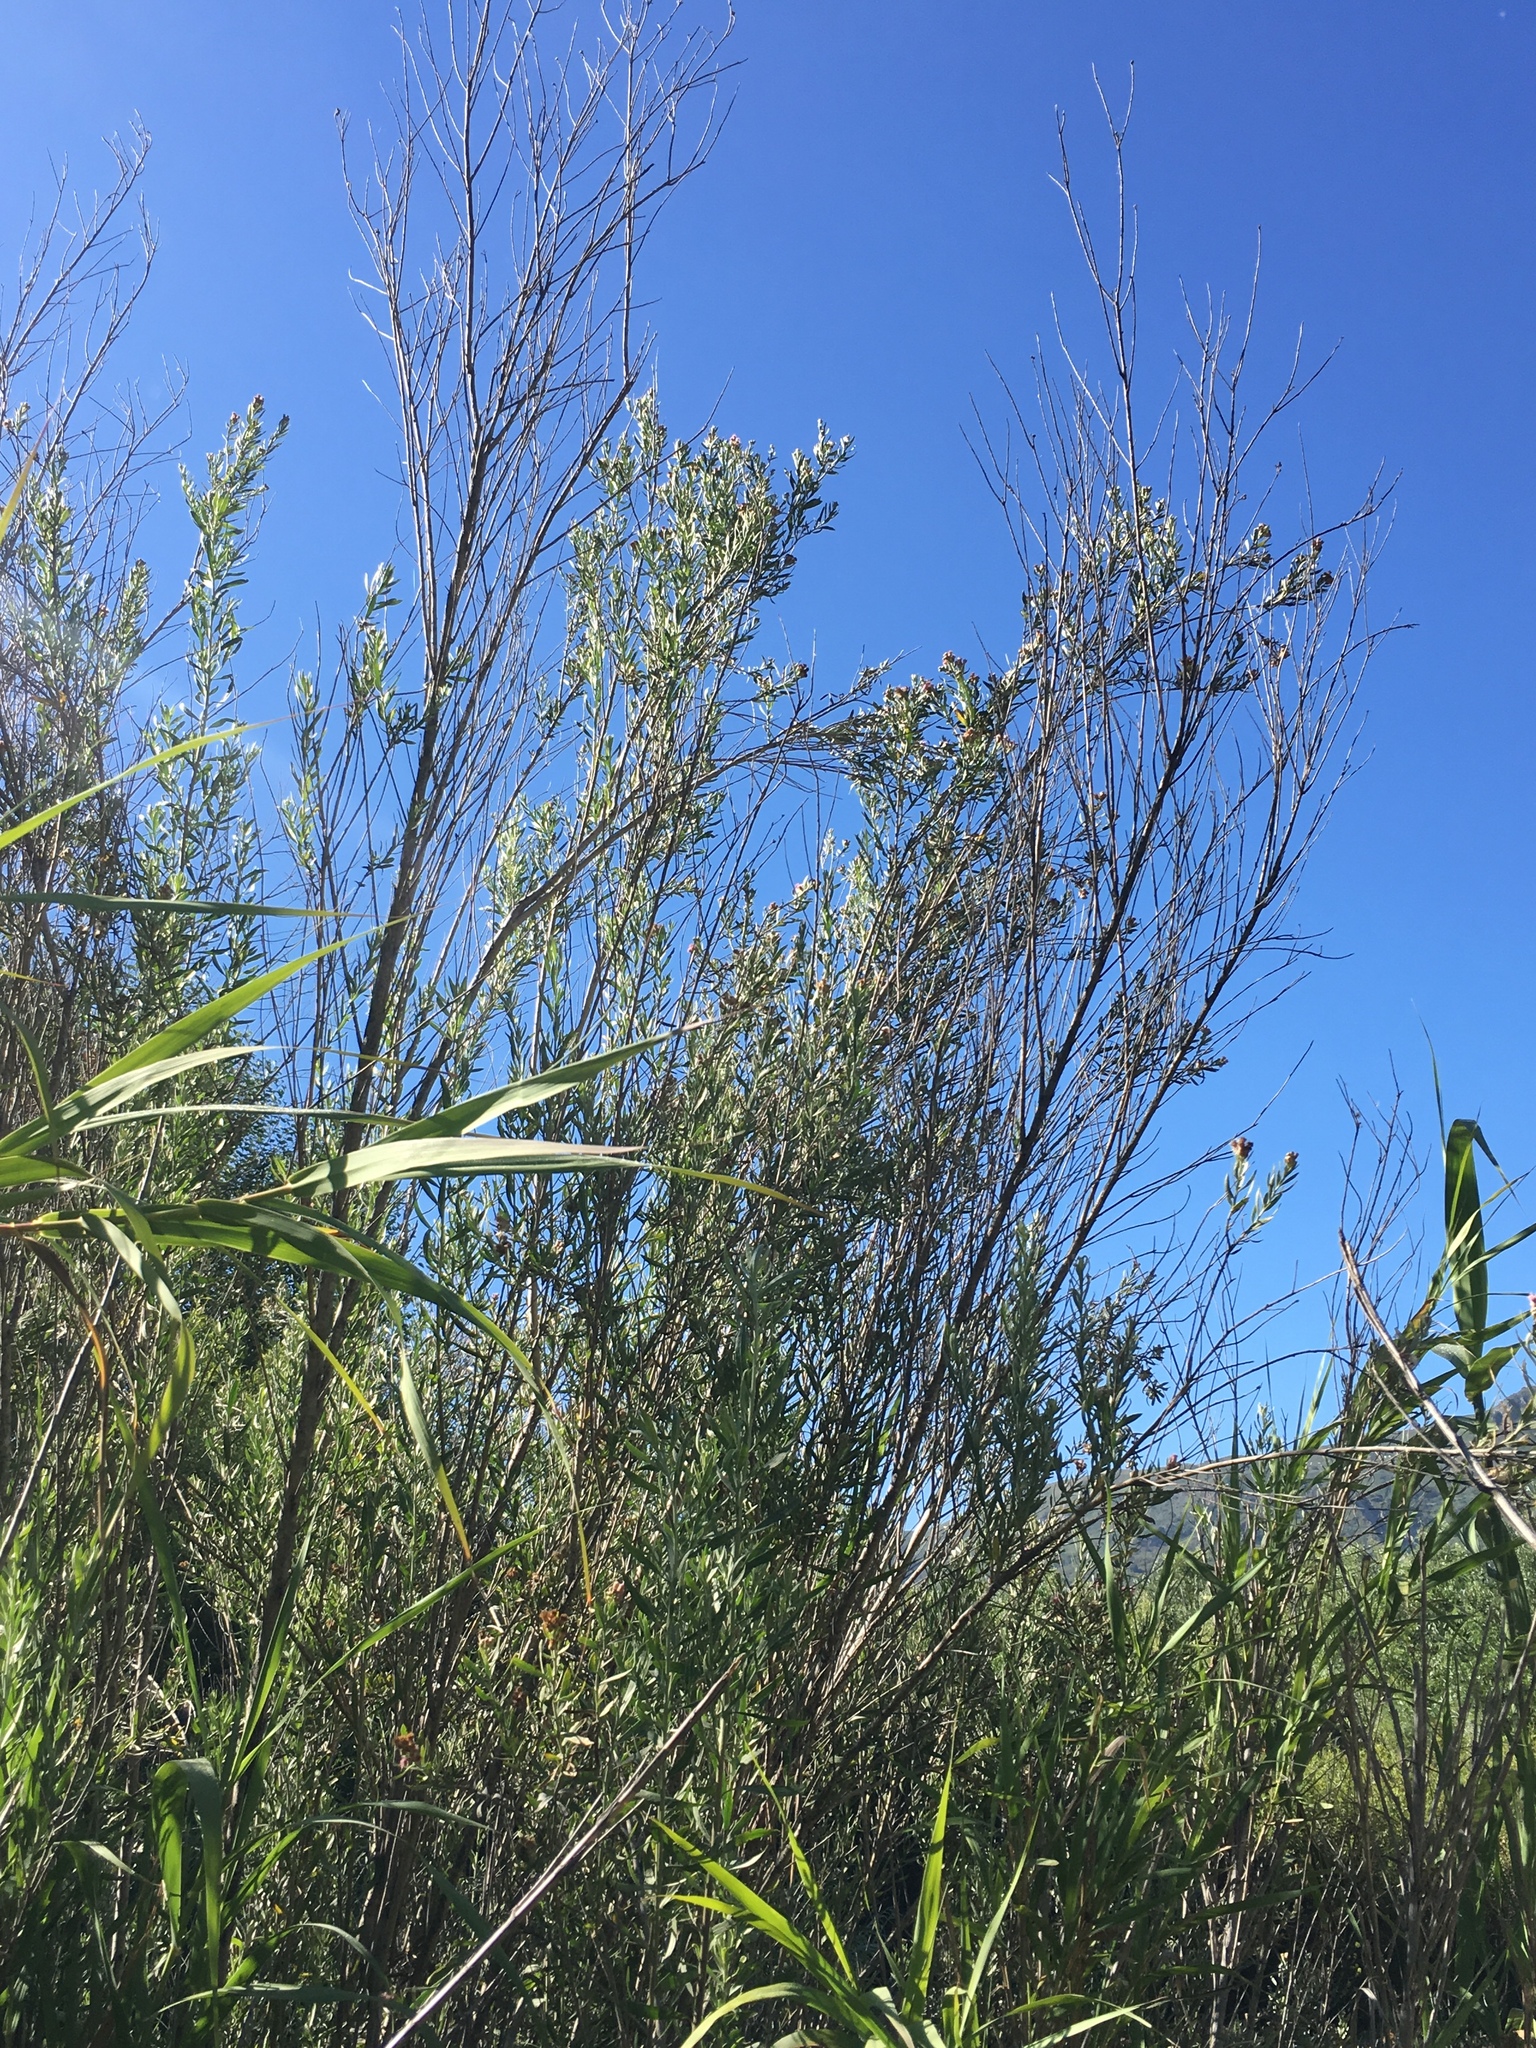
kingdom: Plantae
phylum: Tracheophyta
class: Magnoliopsida
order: Asterales
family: Asteraceae
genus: Pluchea
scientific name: Pluchea sericea
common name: Arrow-weed
